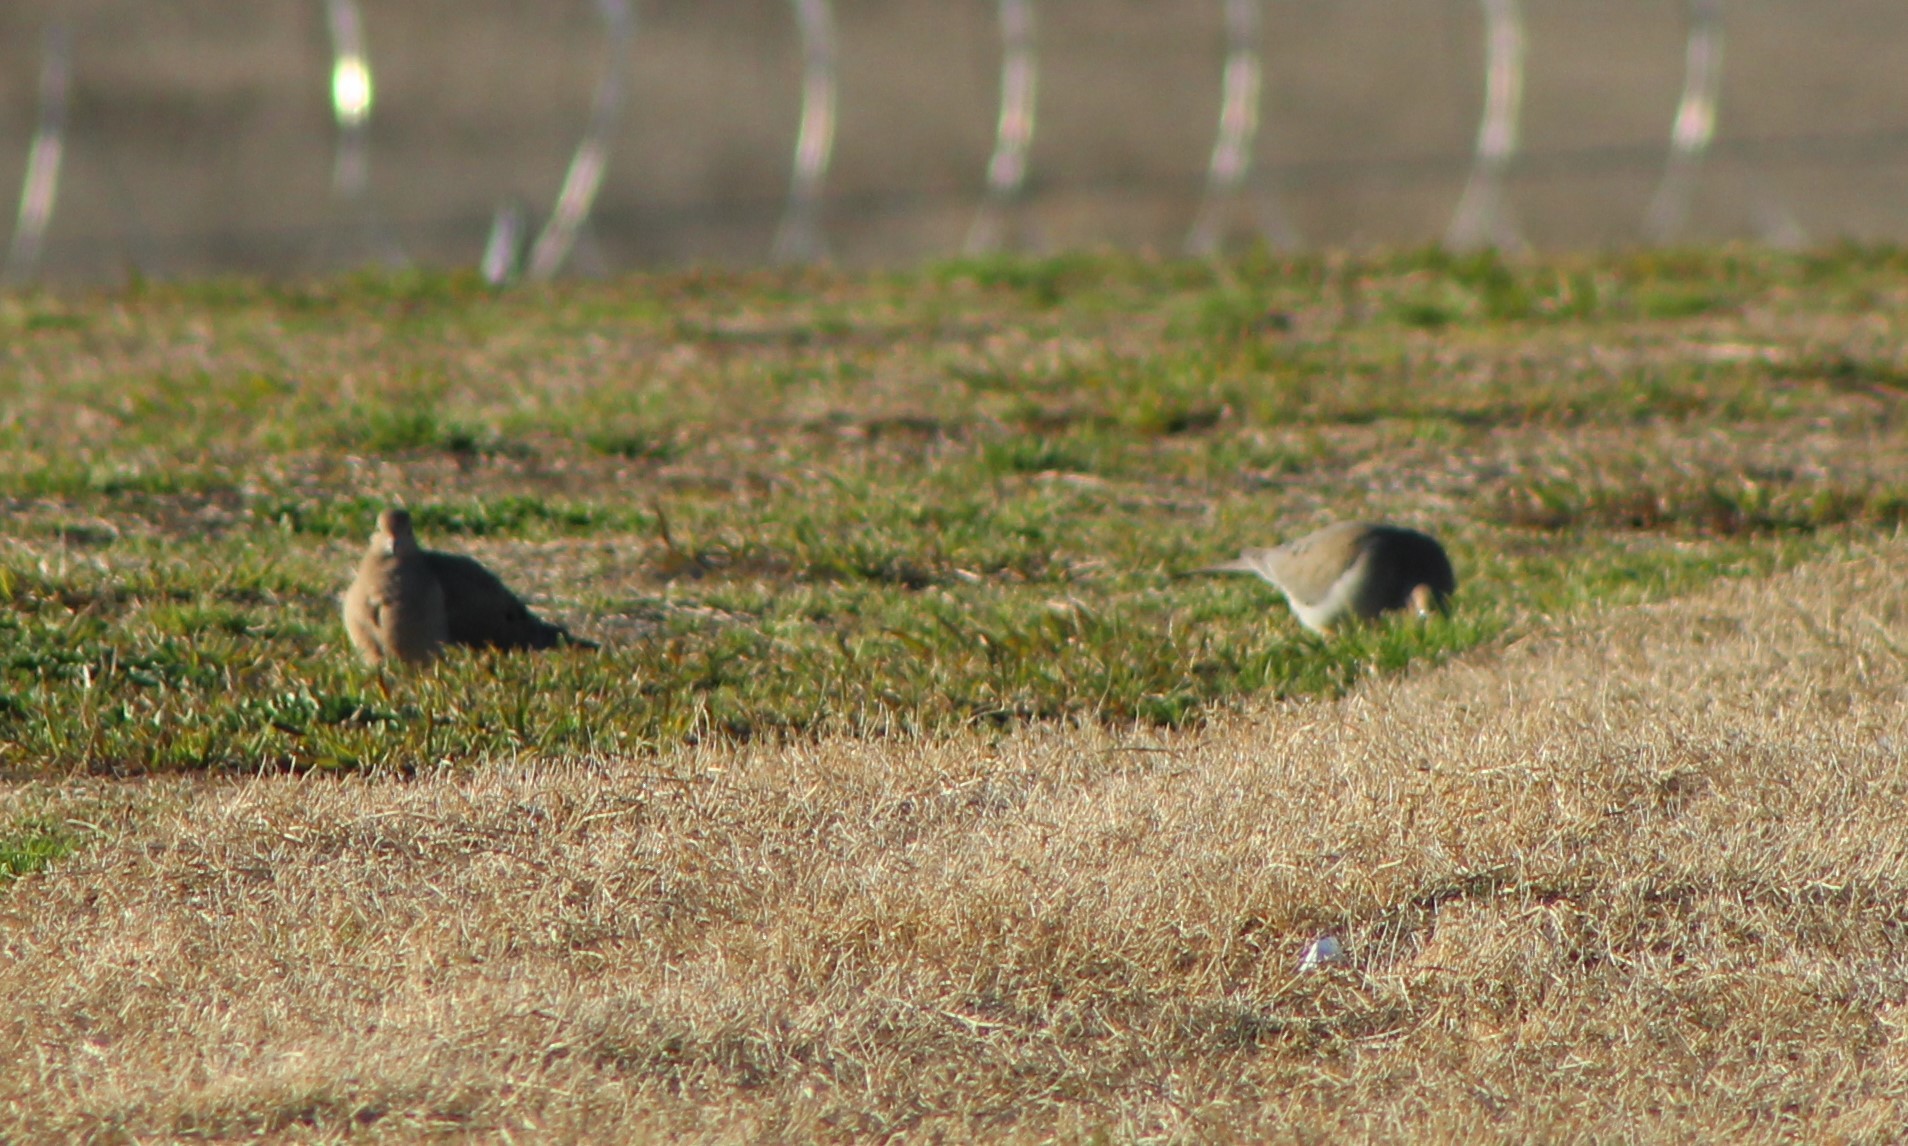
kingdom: Animalia
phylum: Chordata
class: Aves
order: Columbiformes
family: Columbidae
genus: Zenaida
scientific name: Zenaida macroura
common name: Mourning dove
